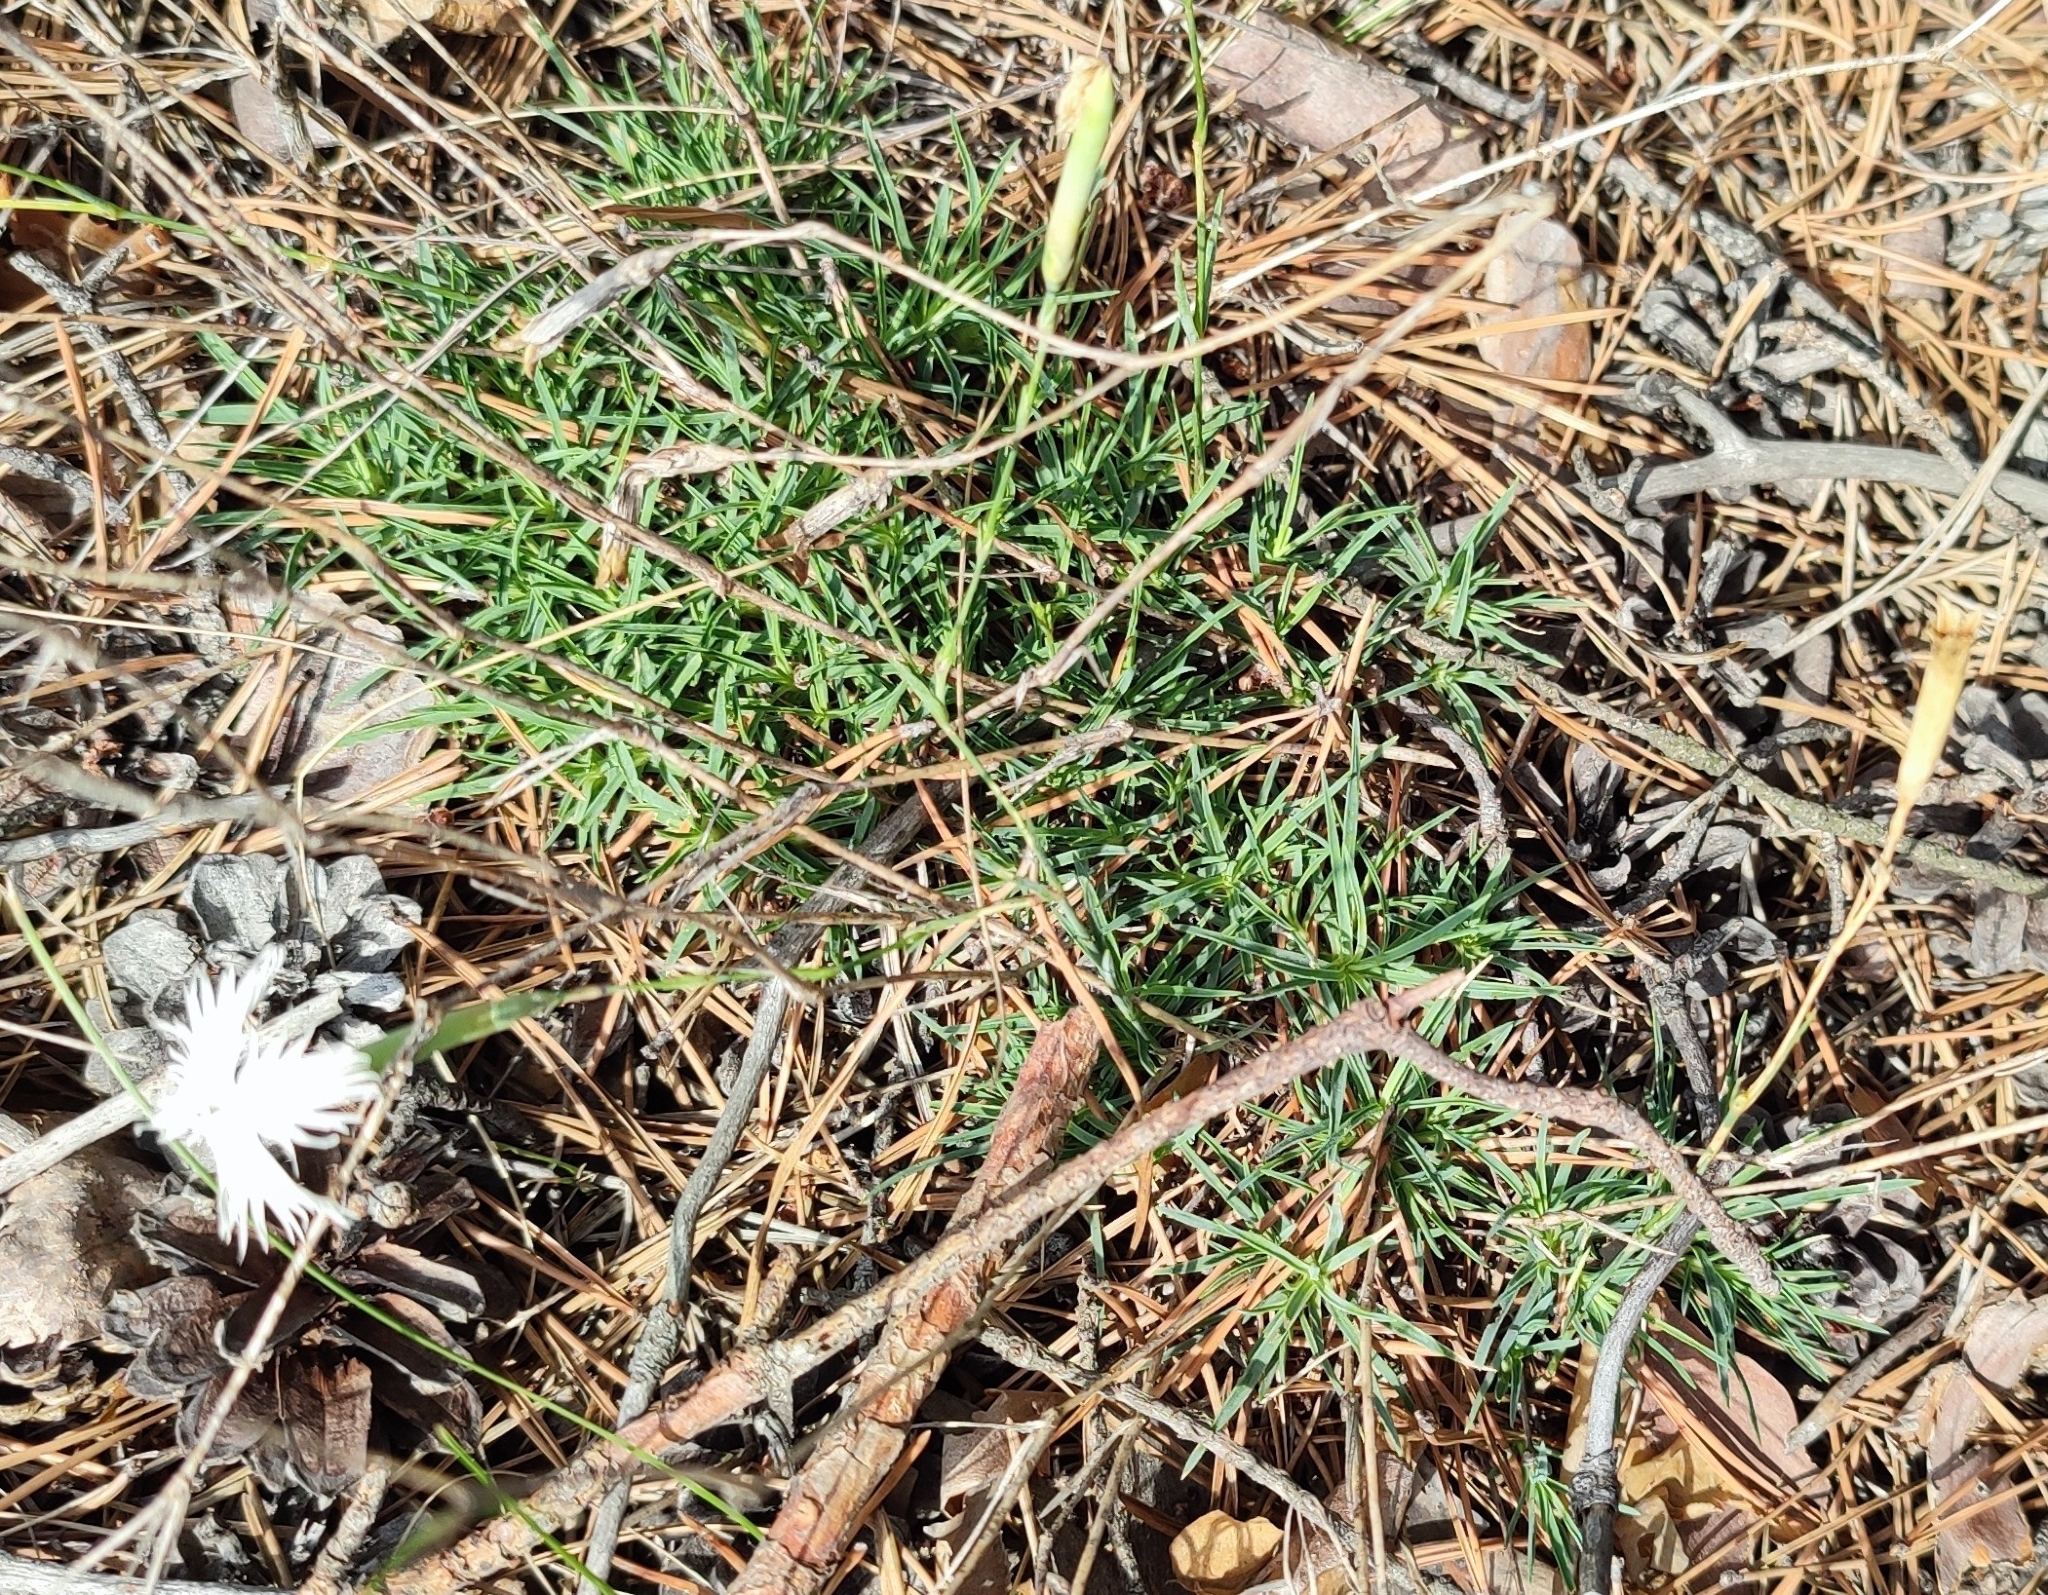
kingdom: Plantae
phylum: Tracheophyta
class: Magnoliopsida
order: Caryophyllales
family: Caryophyllaceae
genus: Dianthus
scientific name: Dianthus arenarius
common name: Stone pink
